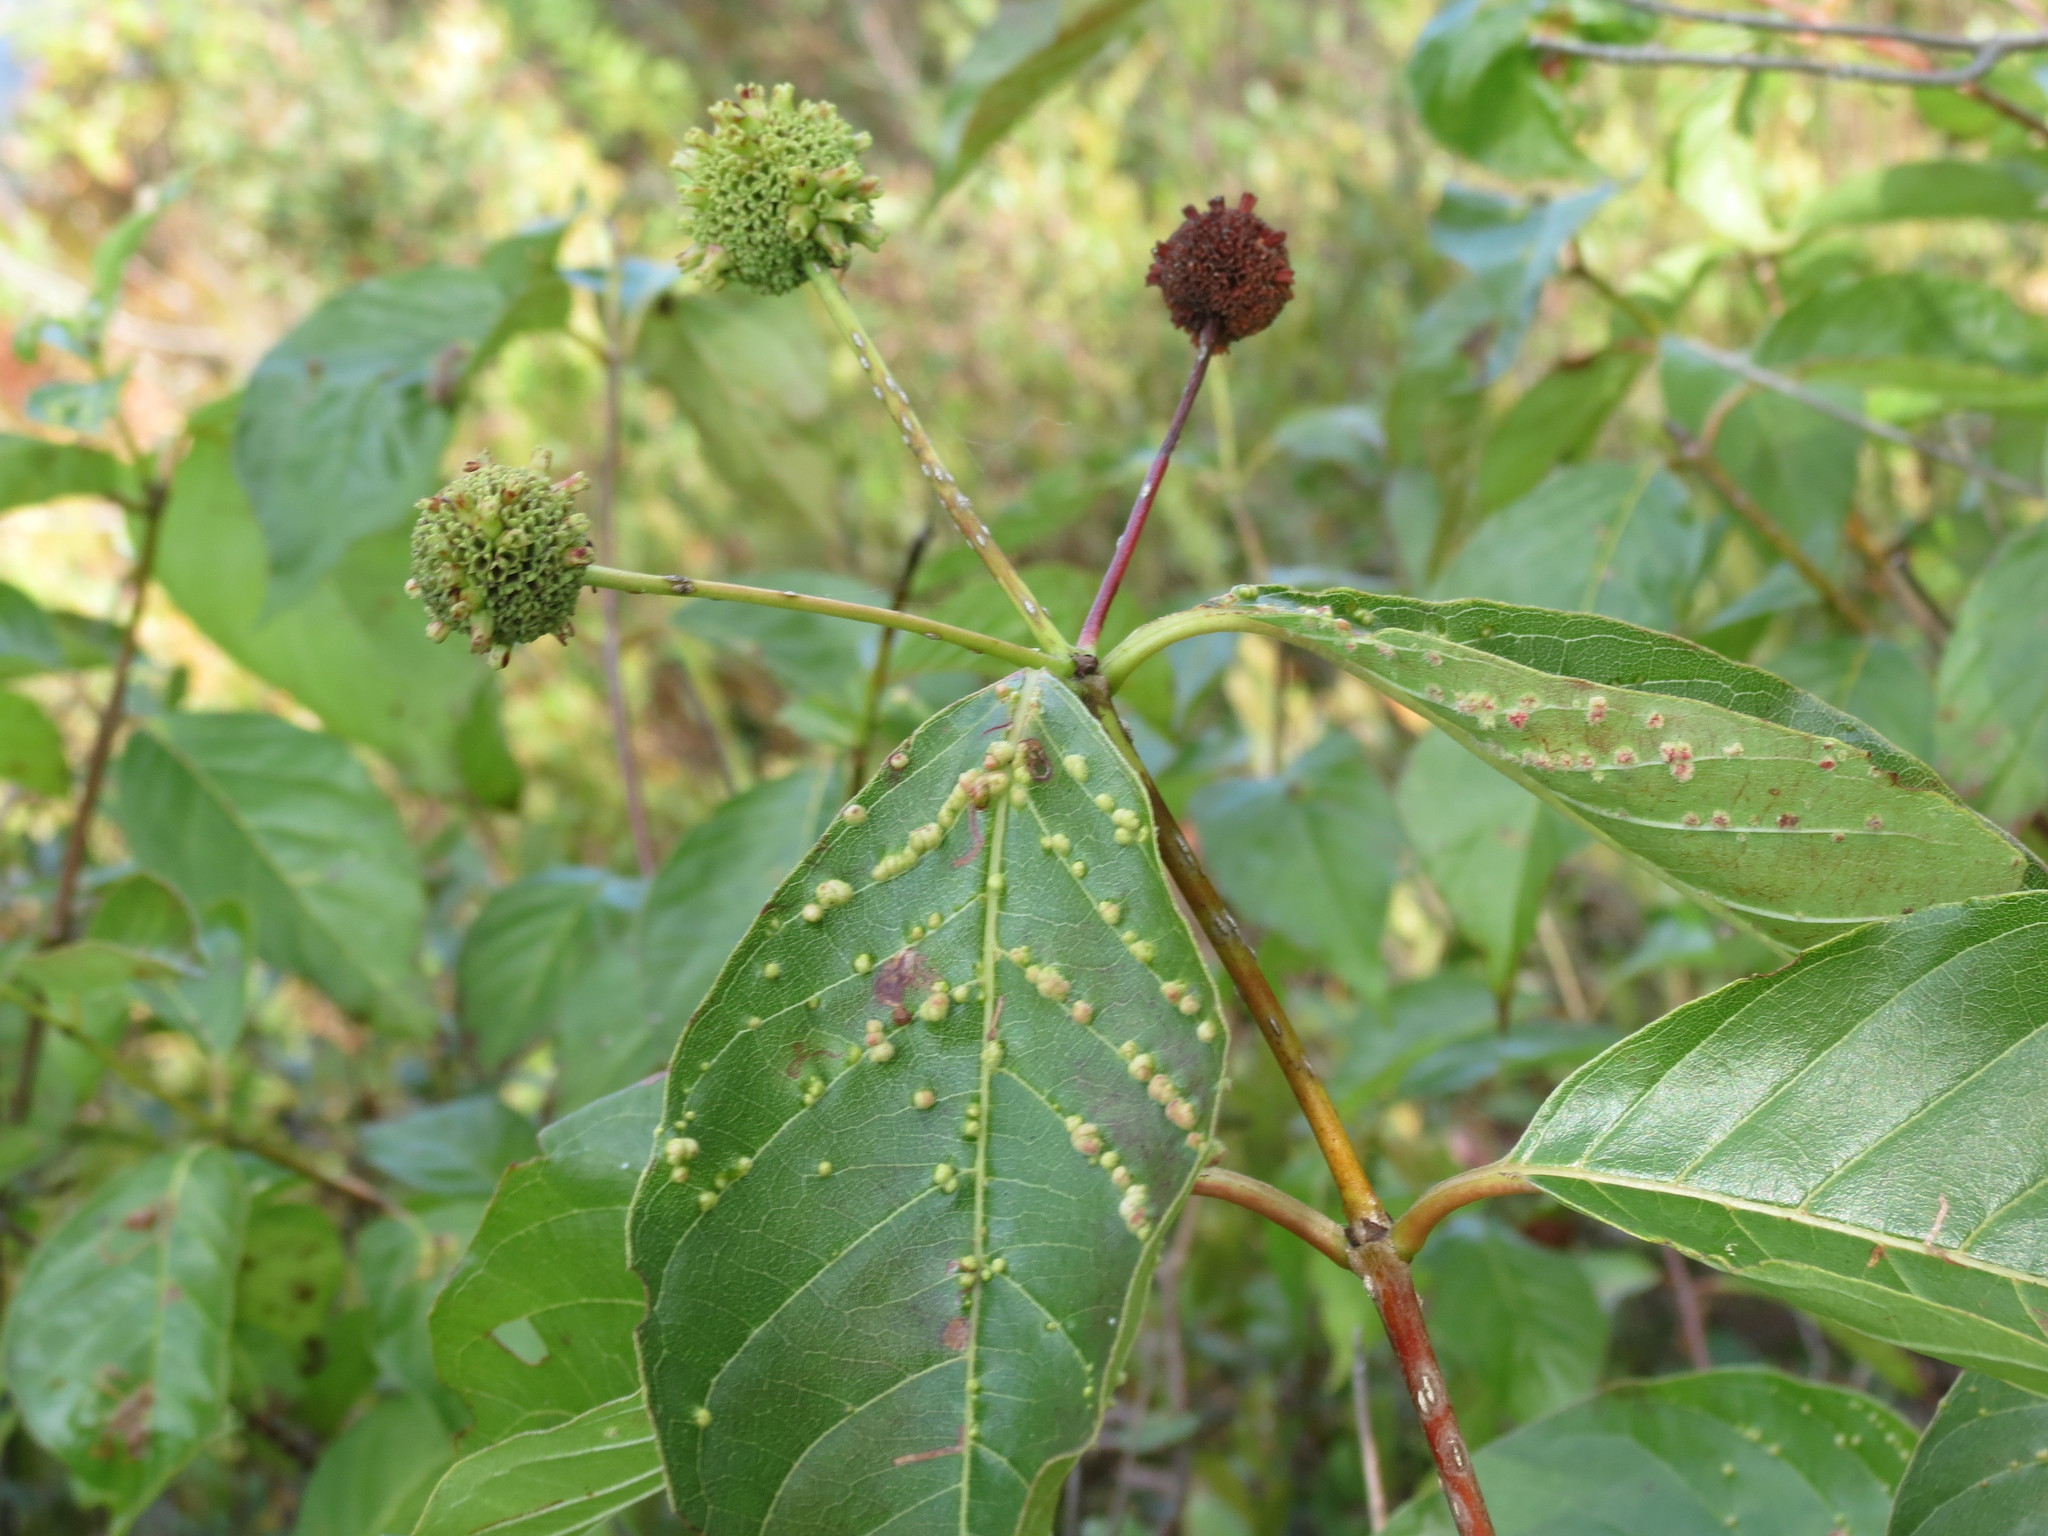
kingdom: Plantae
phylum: Tracheophyta
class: Magnoliopsida
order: Gentianales
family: Rubiaceae
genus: Cephalanthus
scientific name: Cephalanthus occidentalis
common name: Button-willow
